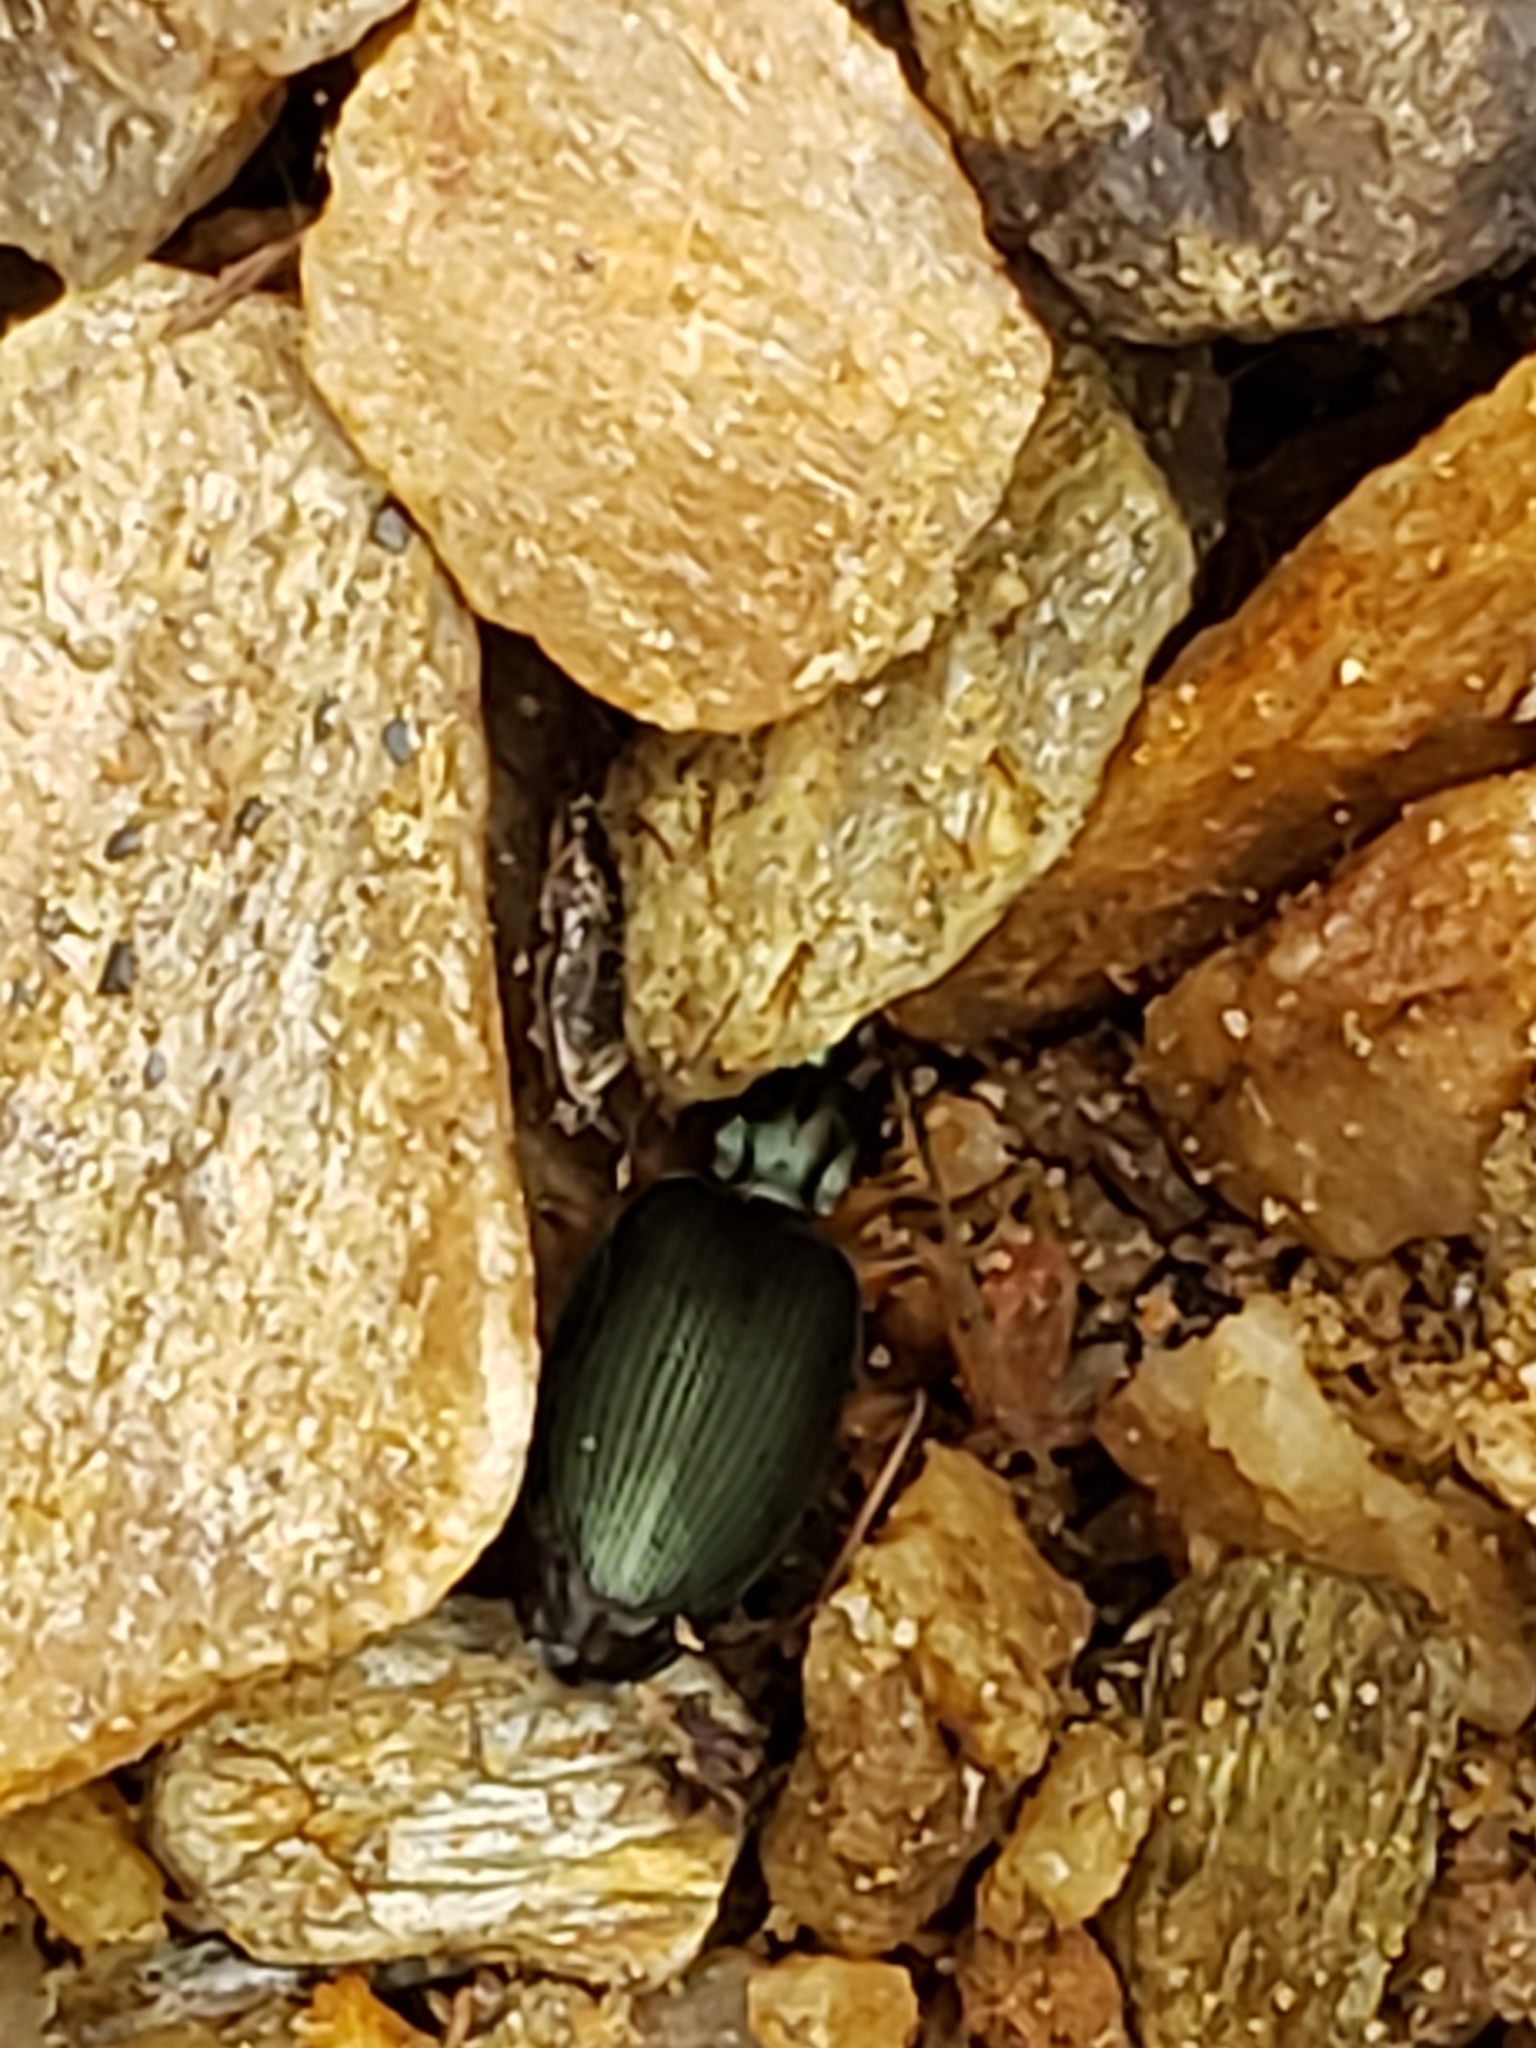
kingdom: Animalia
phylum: Arthropoda
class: Insecta
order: Coleoptera
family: Carabidae
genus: Agonum
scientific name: Agonum extensicolle
